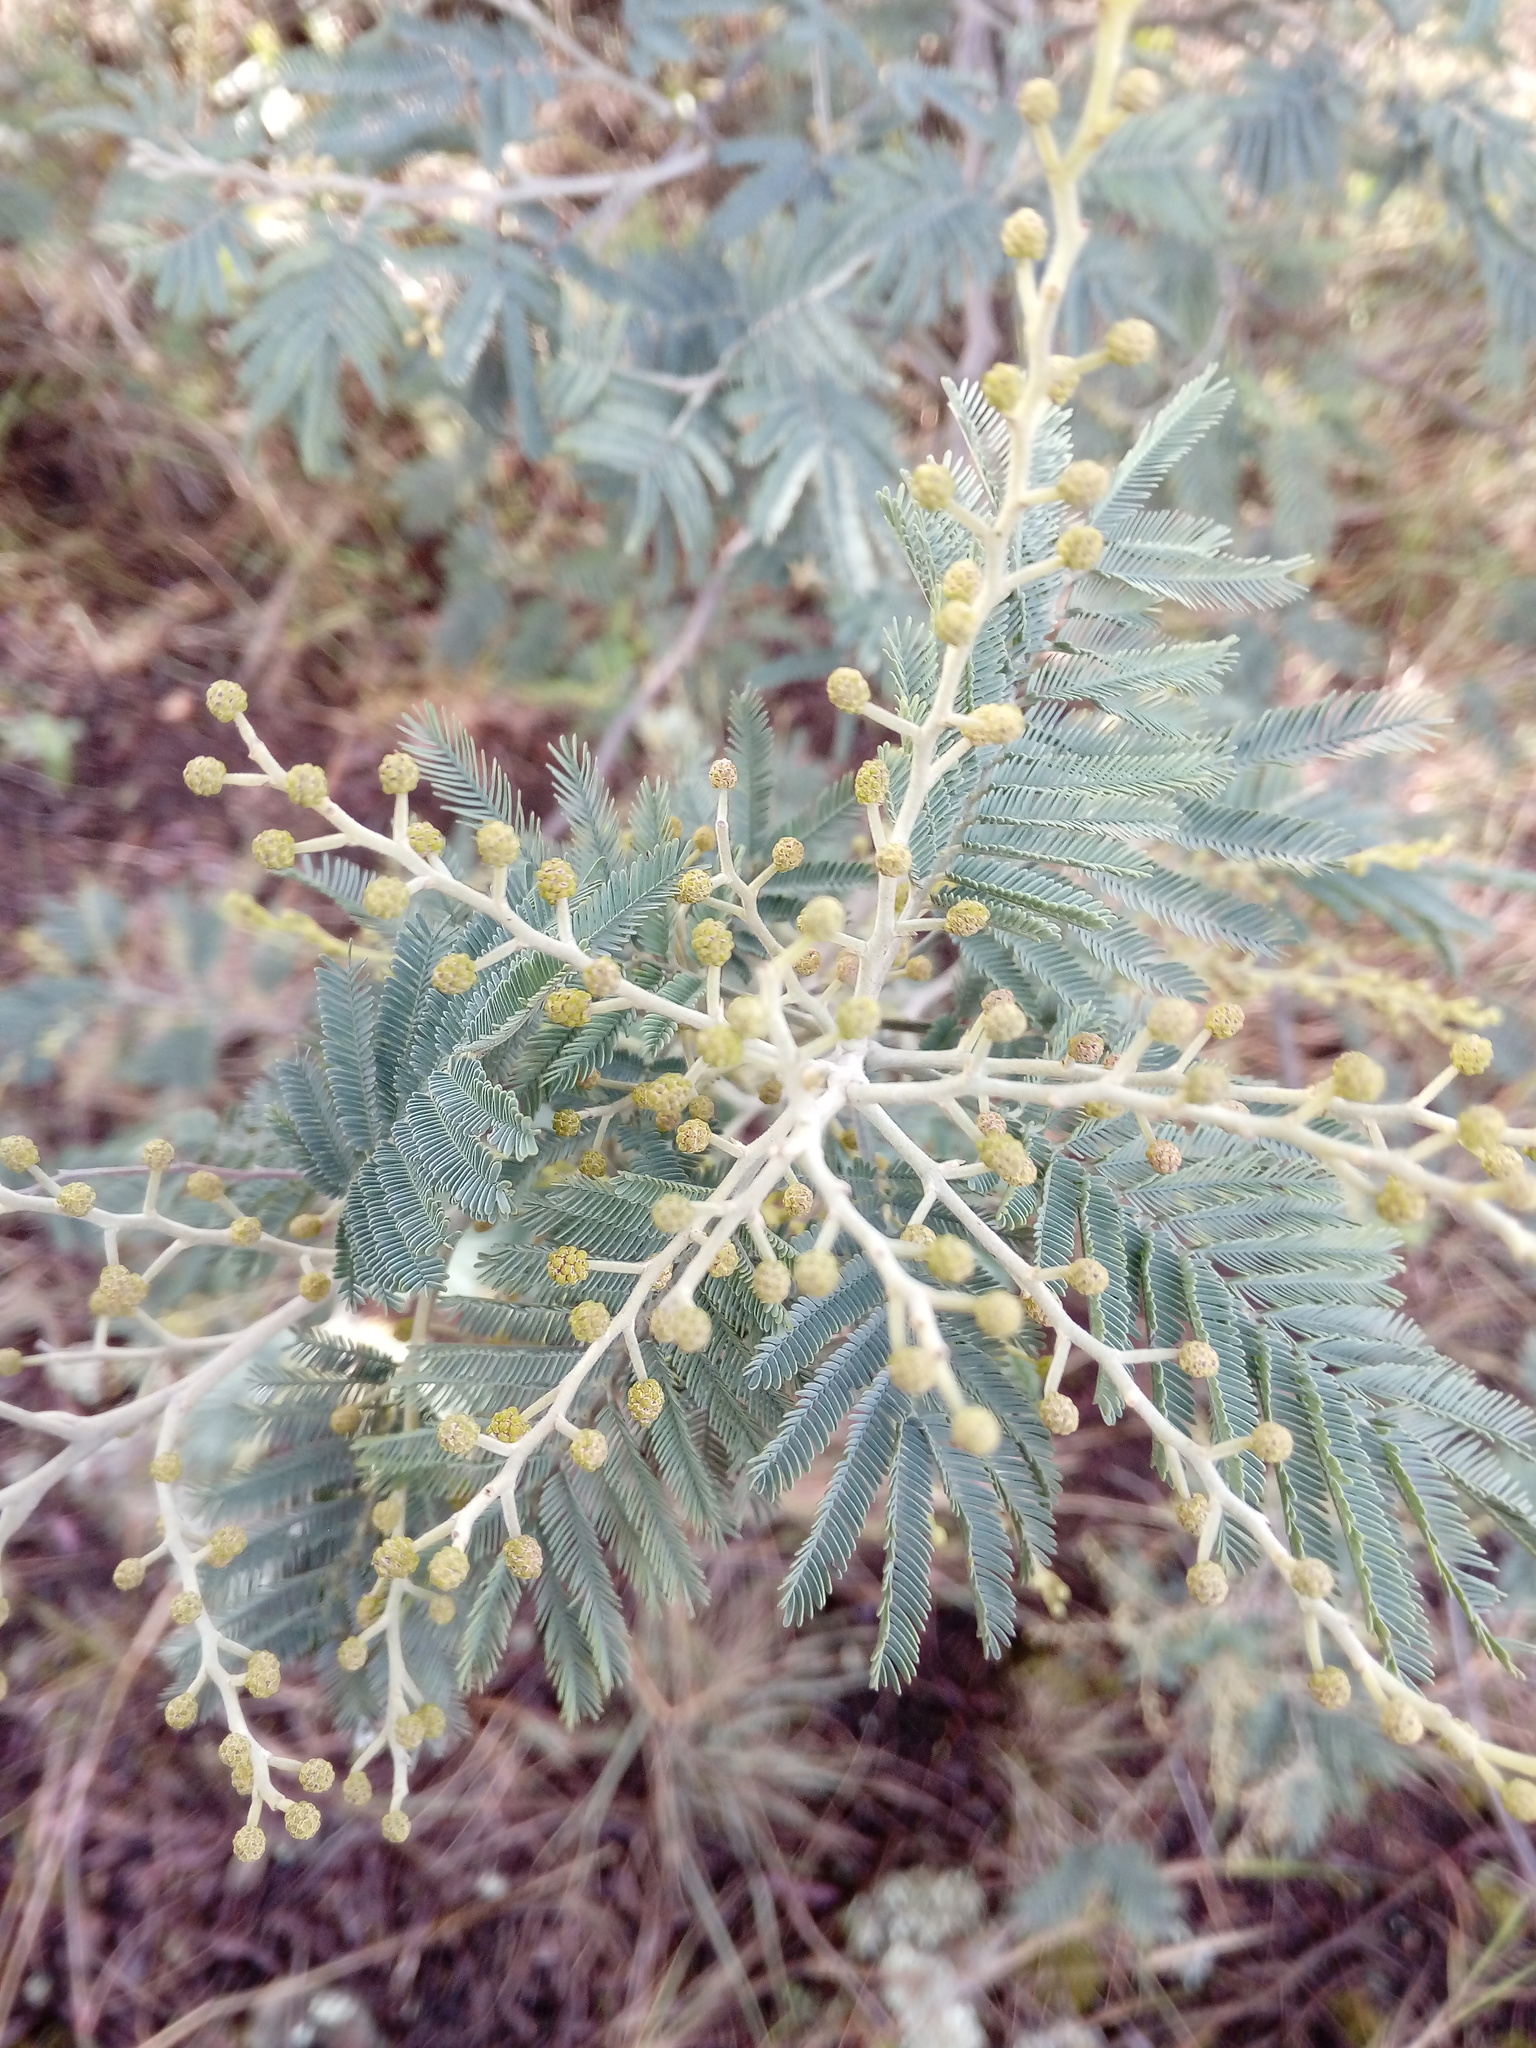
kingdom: Plantae
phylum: Tracheophyta
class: Magnoliopsida
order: Fabales
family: Fabaceae
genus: Acacia
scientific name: Acacia dealbata
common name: Silver wattle
